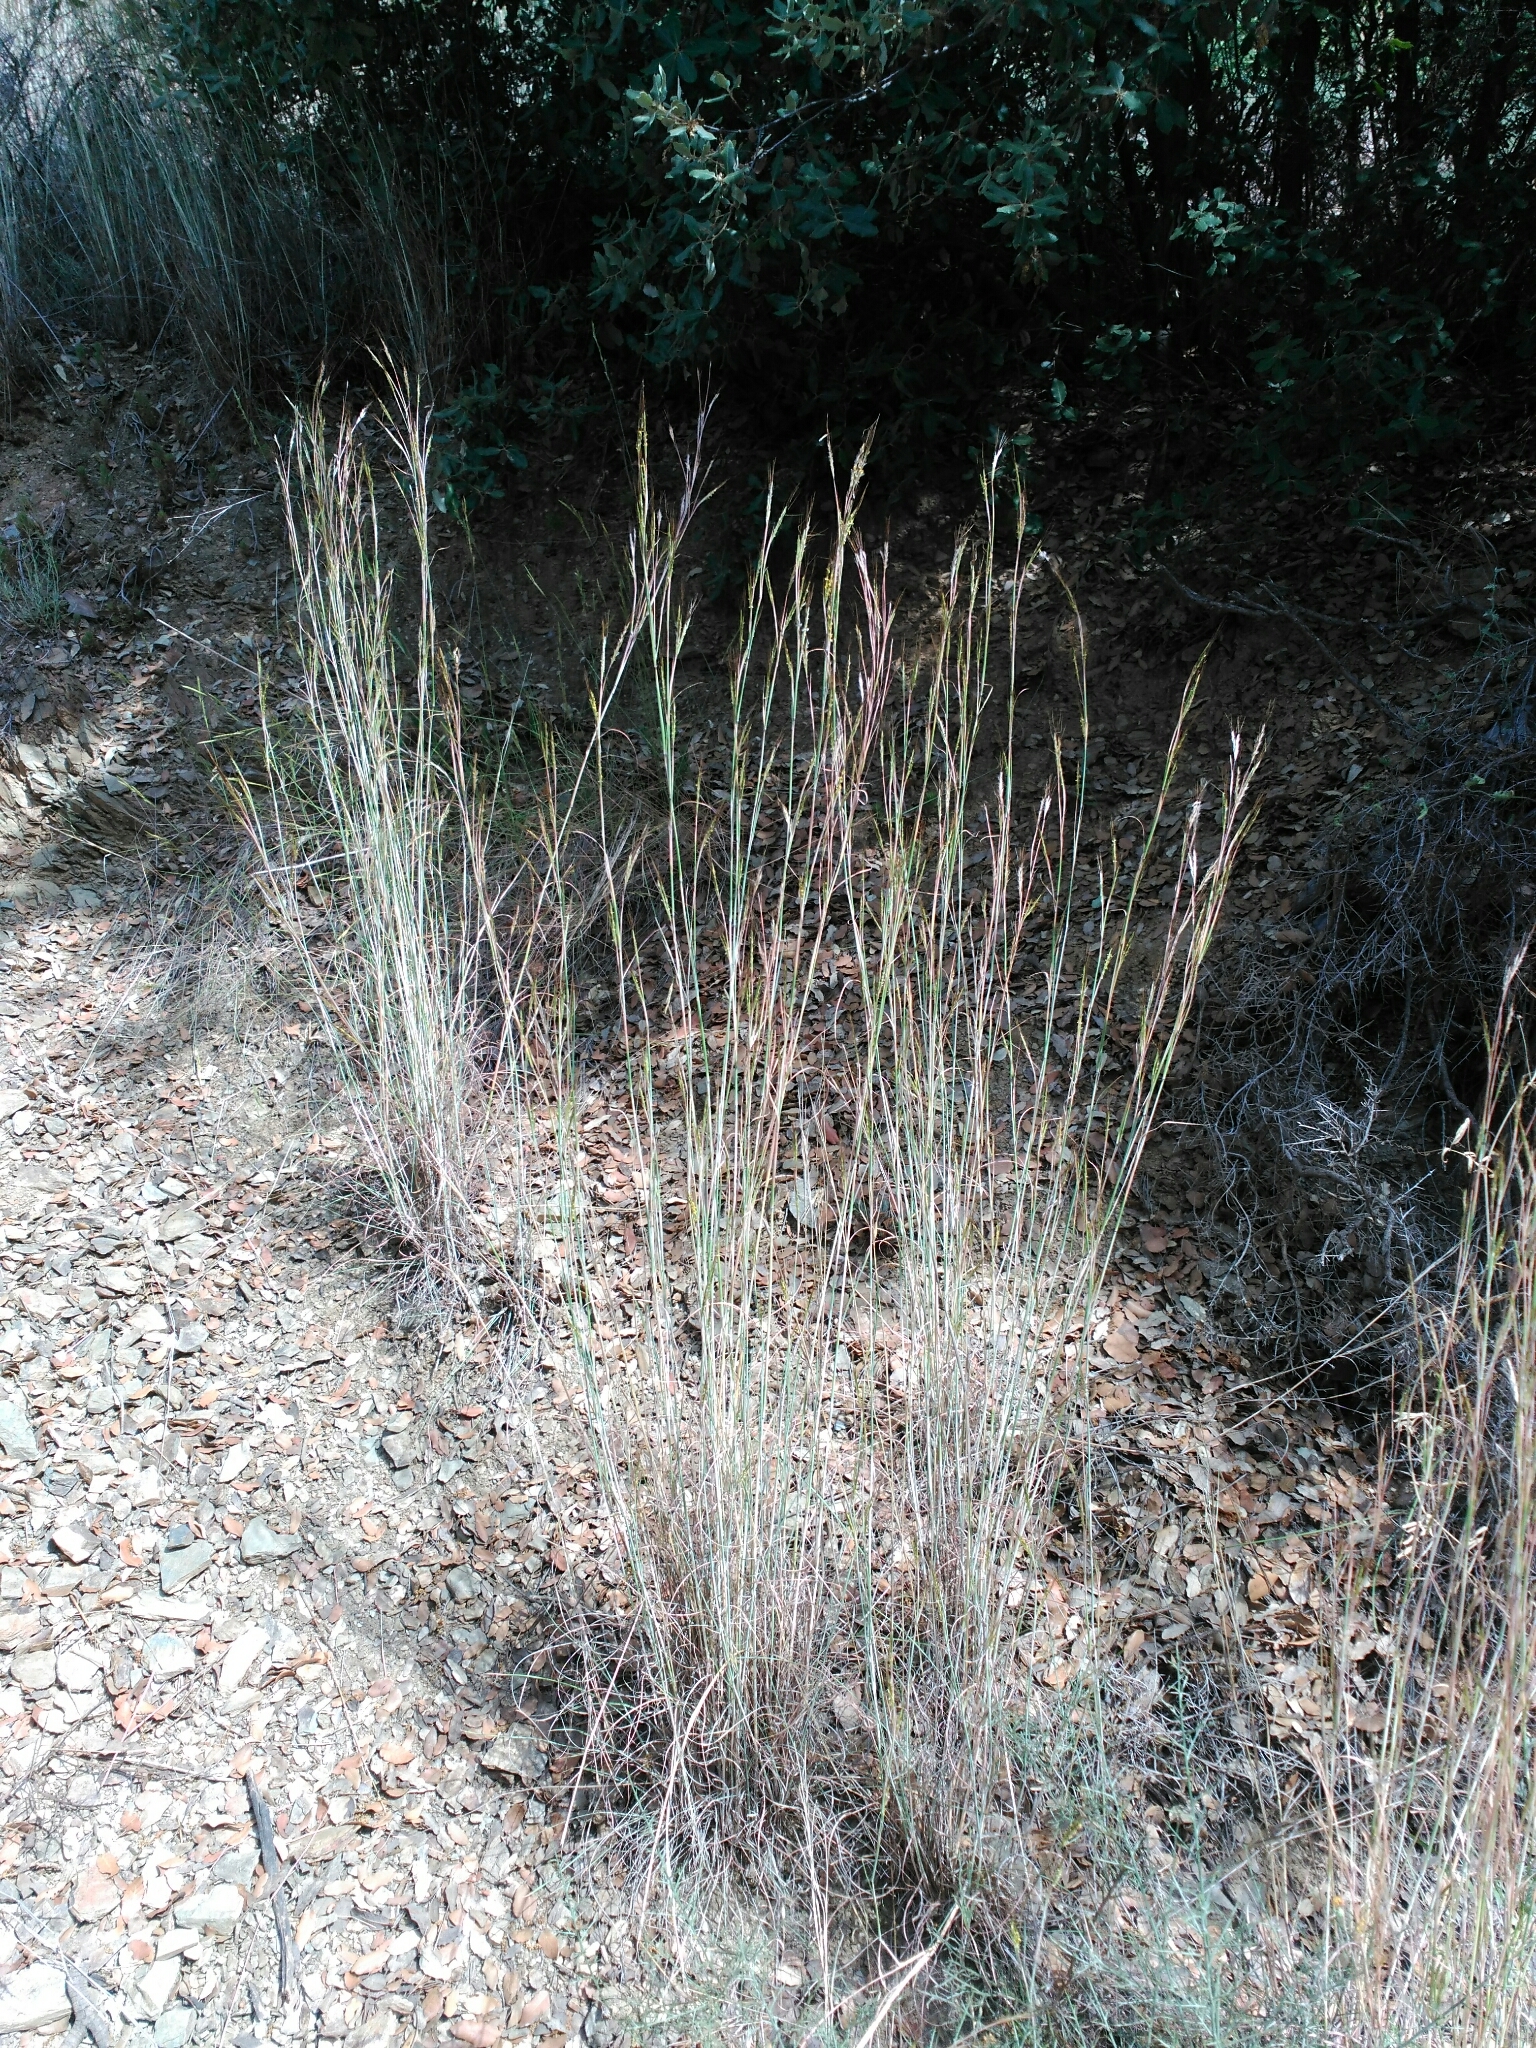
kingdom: Plantae
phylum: Tracheophyta
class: Liliopsida
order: Poales
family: Poaceae
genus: Hyparrhenia
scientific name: Hyparrhenia hirta
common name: Thatching grass
